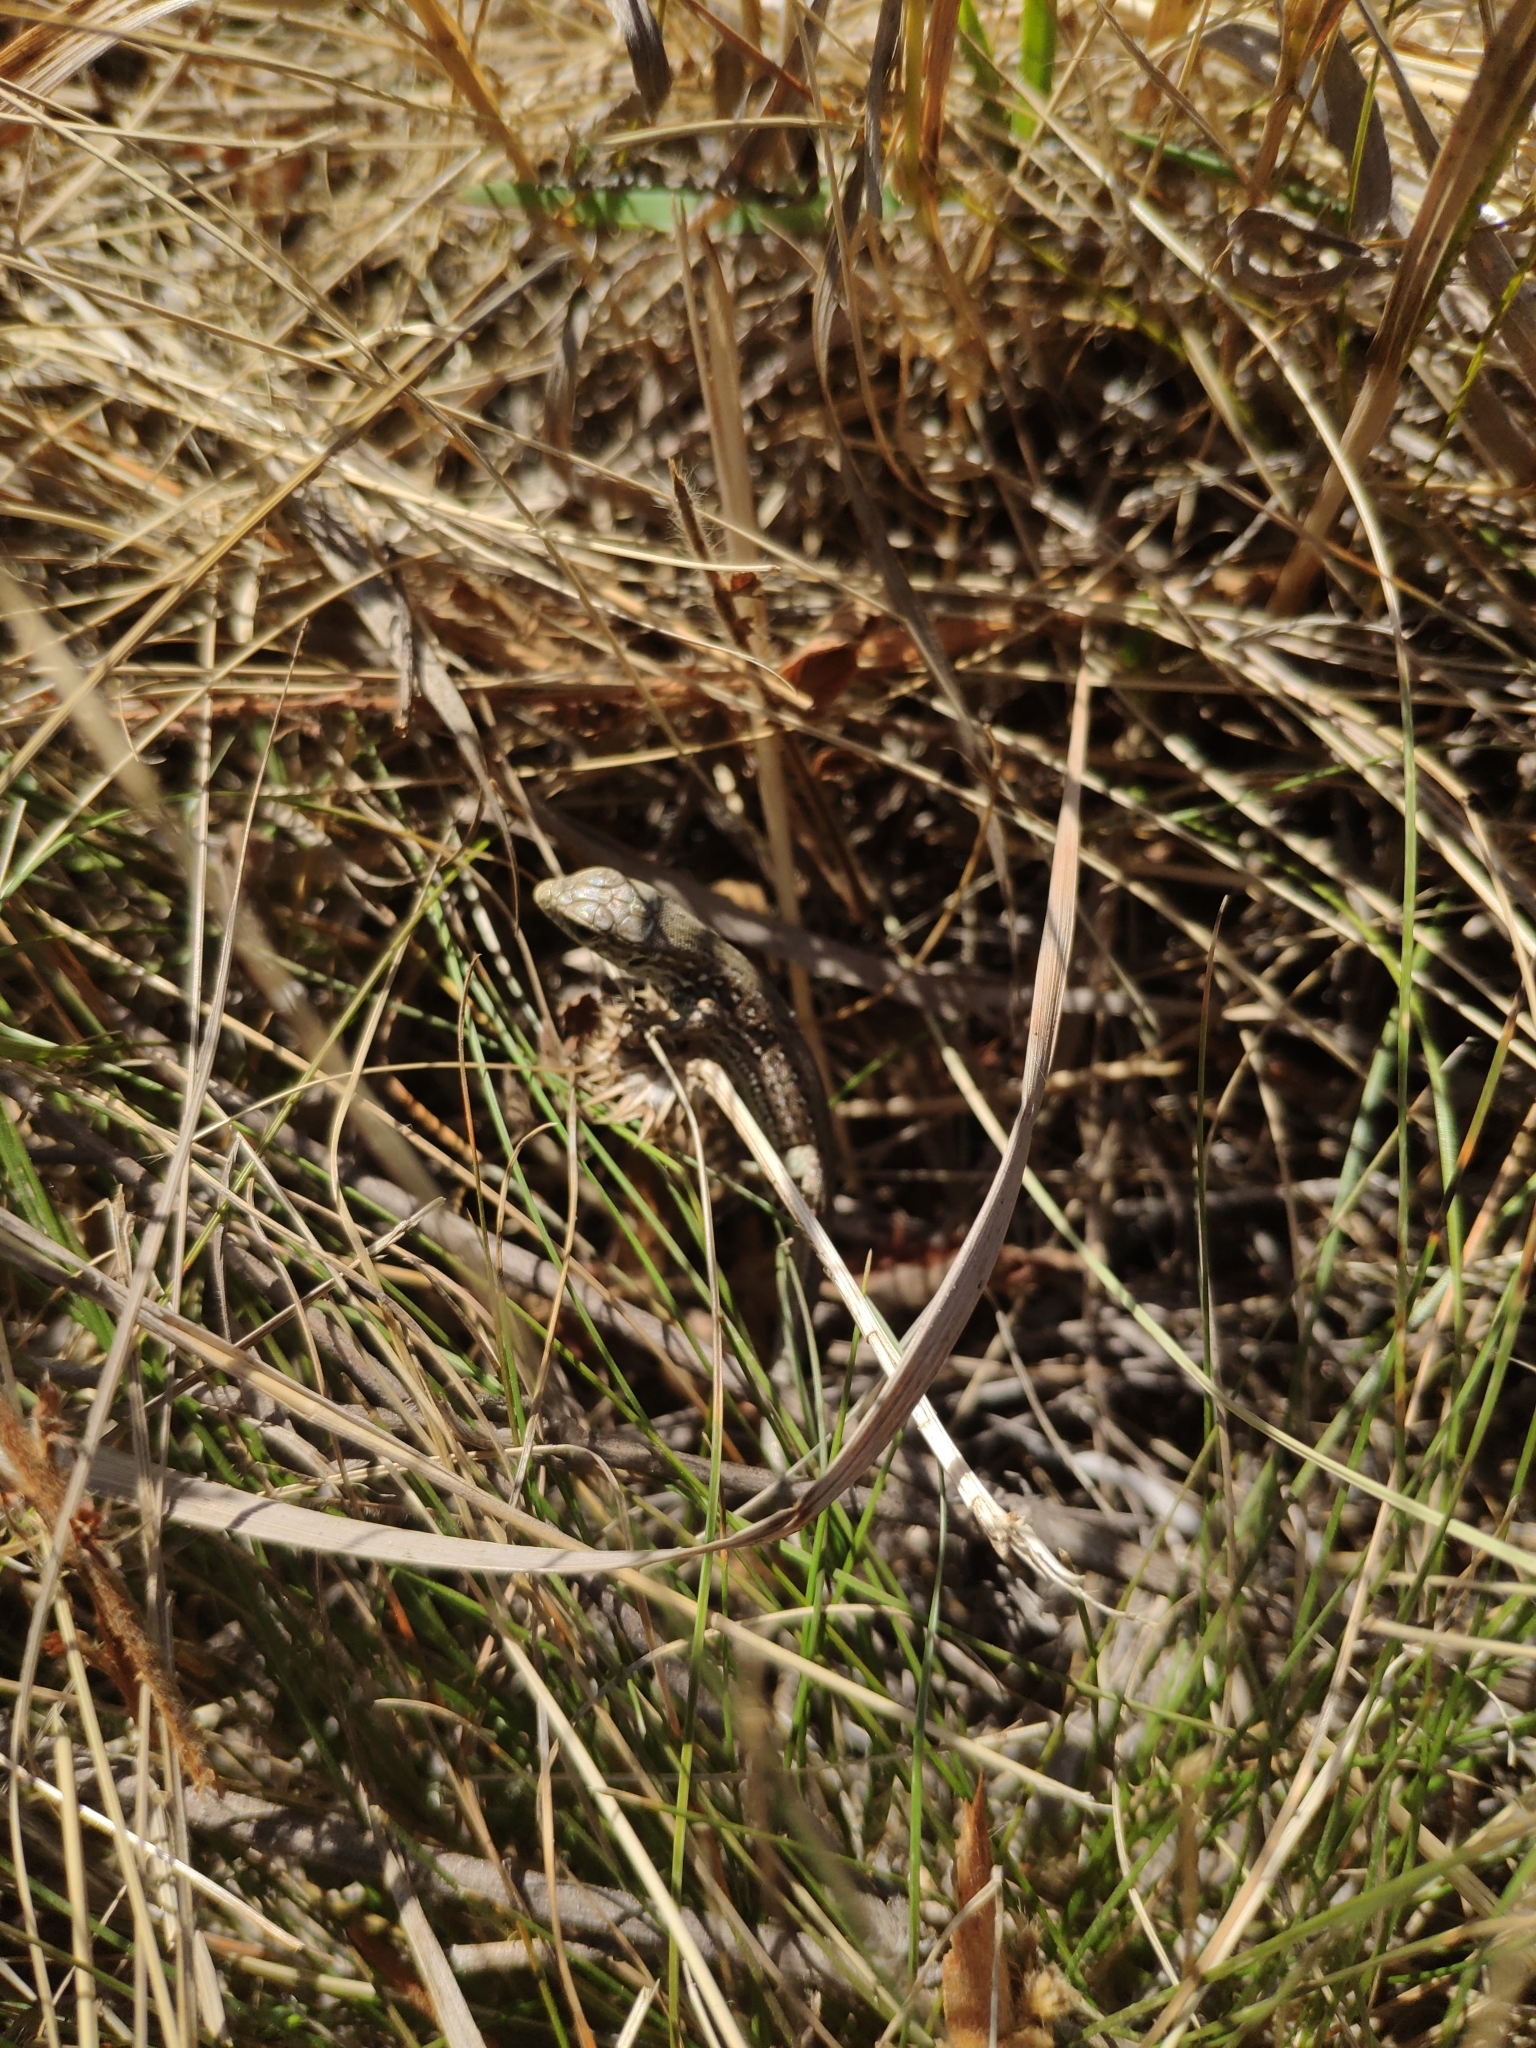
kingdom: Animalia
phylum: Chordata
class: Squamata
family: Lacertidae
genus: Lacerta
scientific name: Lacerta agilis
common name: Sand lizard
